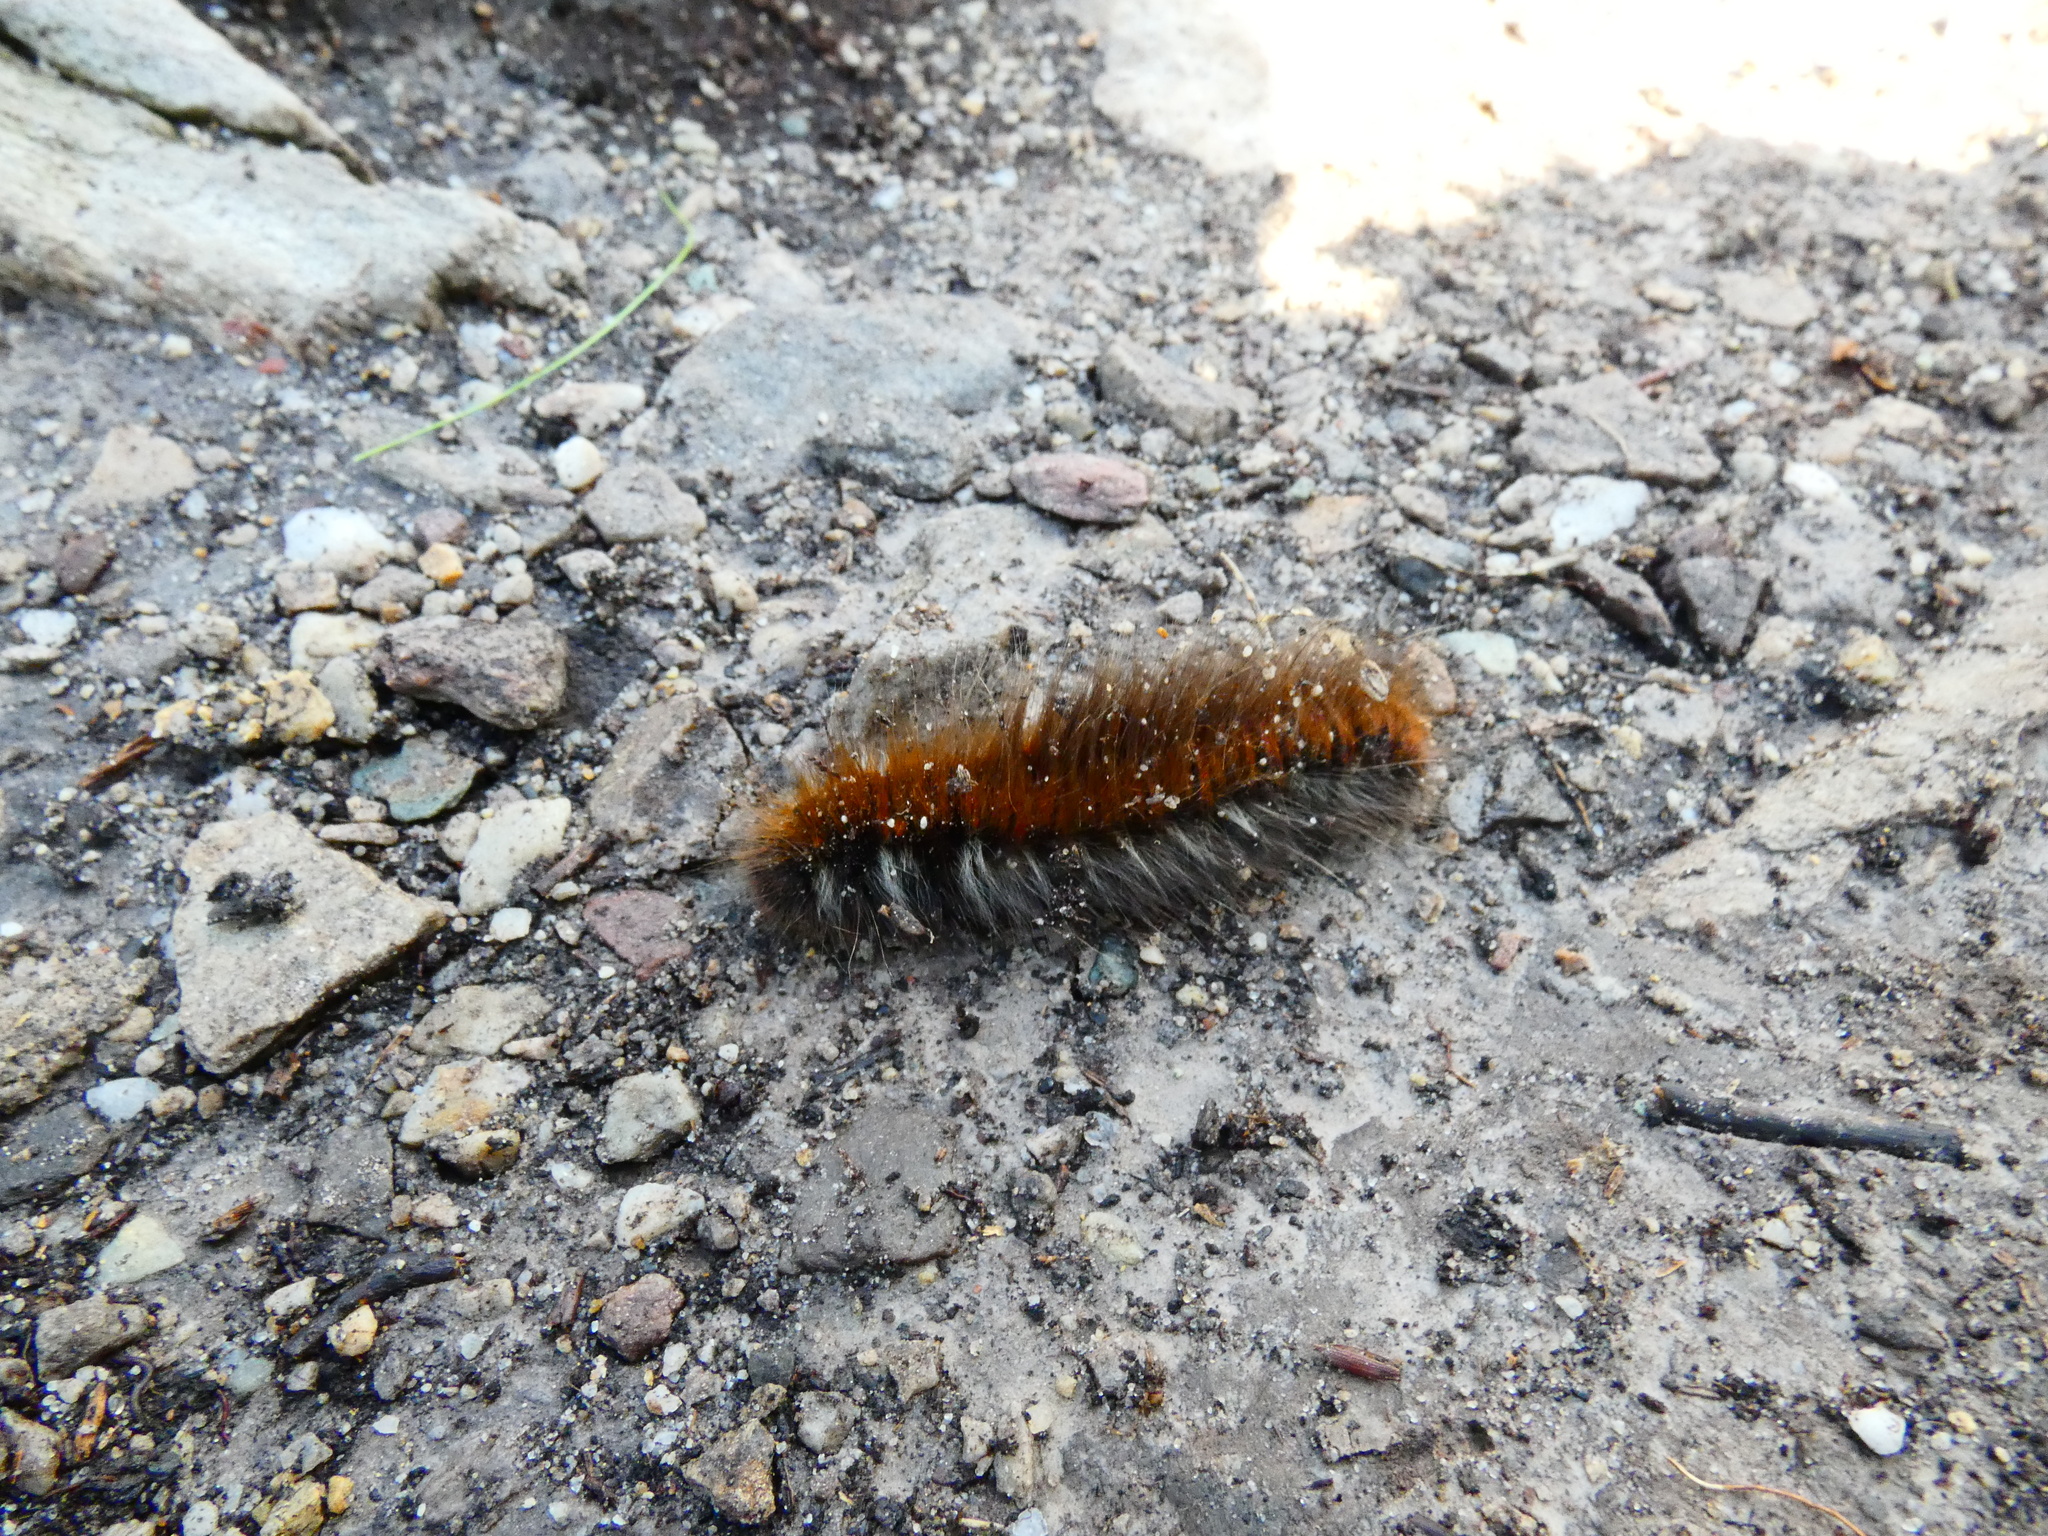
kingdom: Animalia
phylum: Arthropoda
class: Insecta
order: Lepidoptera
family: Lasiocampidae
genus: Macrothylacia
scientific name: Macrothylacia rubi
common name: Fox moth
